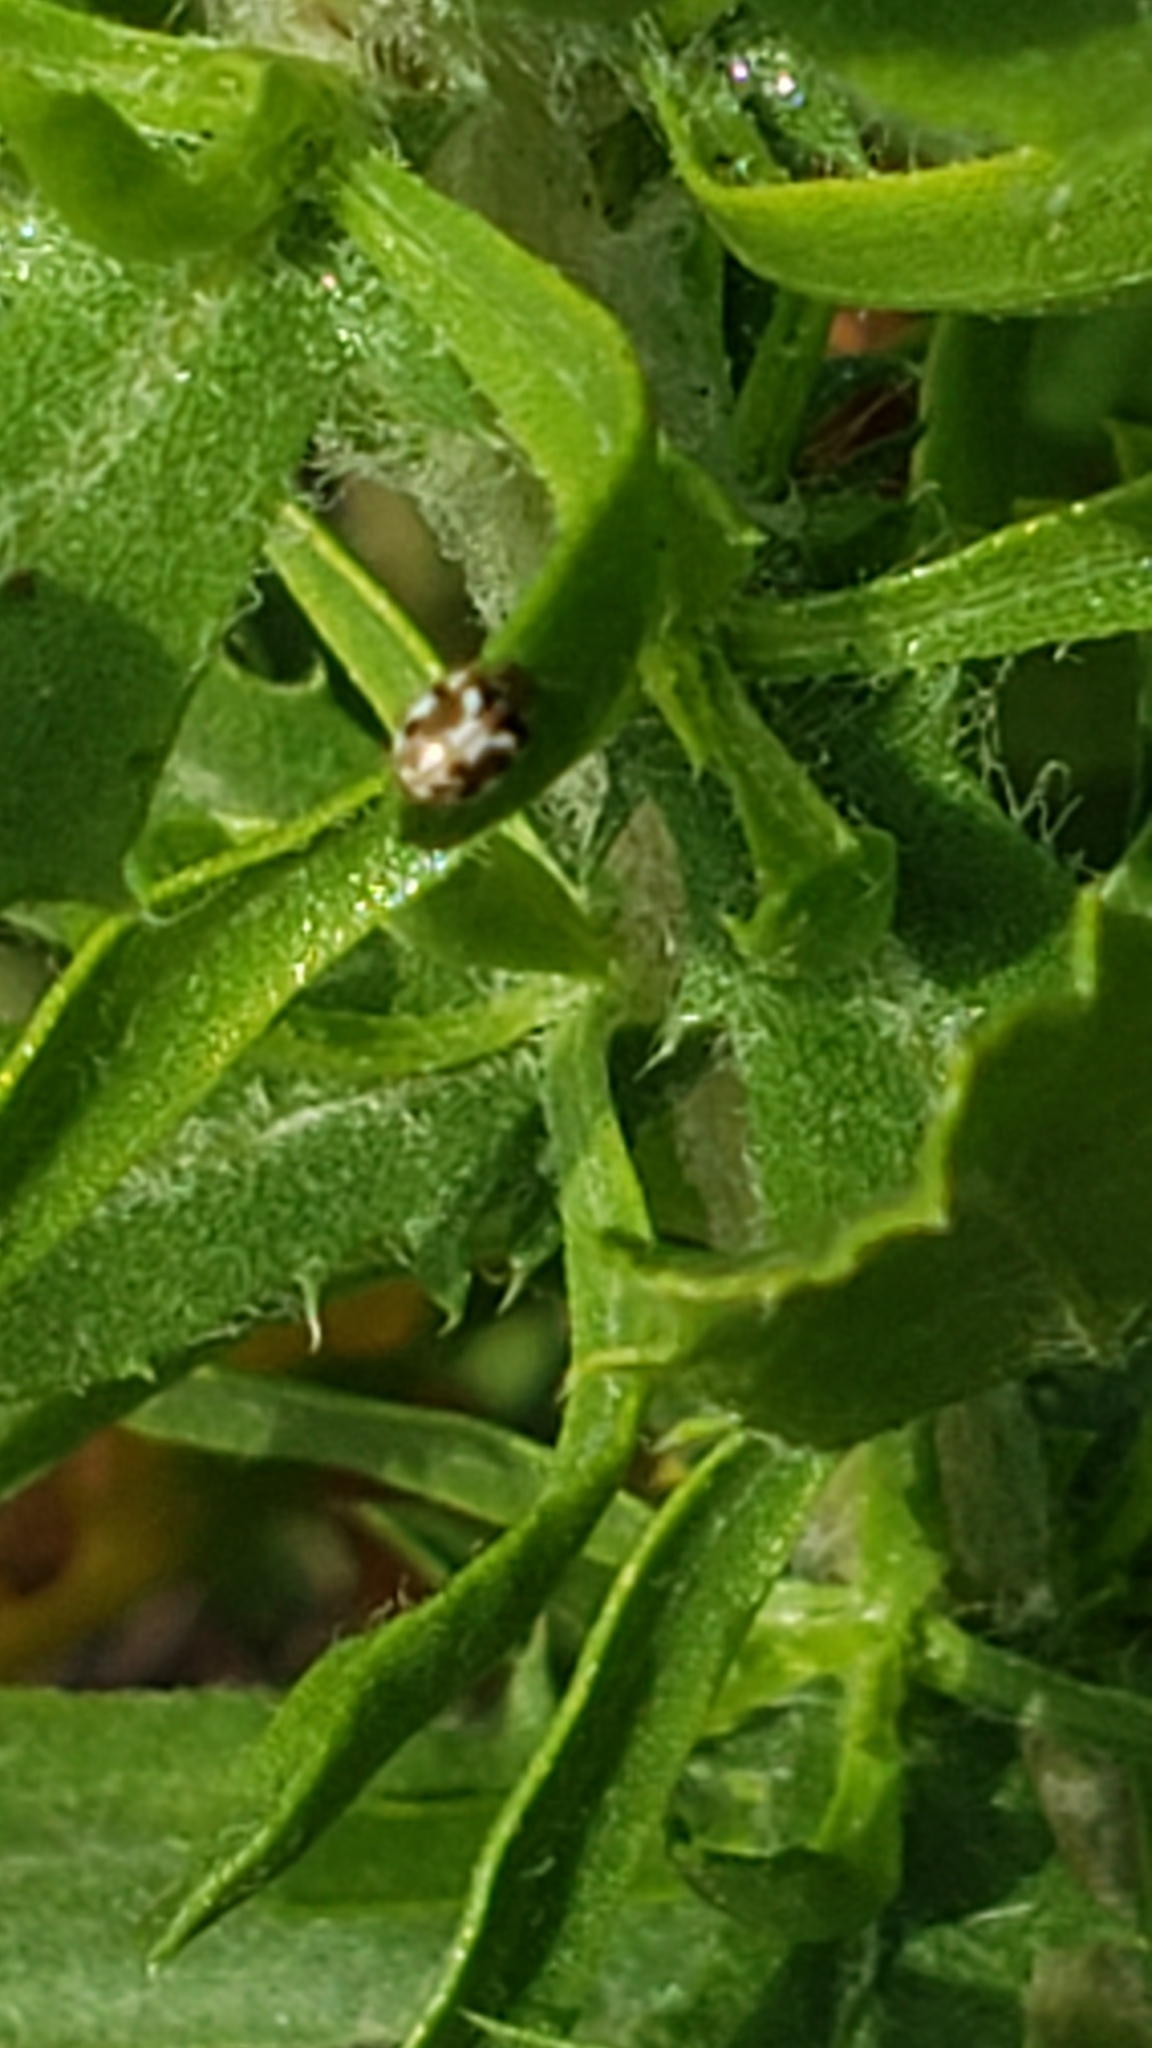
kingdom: Animalia
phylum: Arthropoda
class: Insecta
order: Coleoptera
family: Coccinellidae
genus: Psyllobora
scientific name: Psyllobora vigintimaculata
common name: Ladybird beetle
